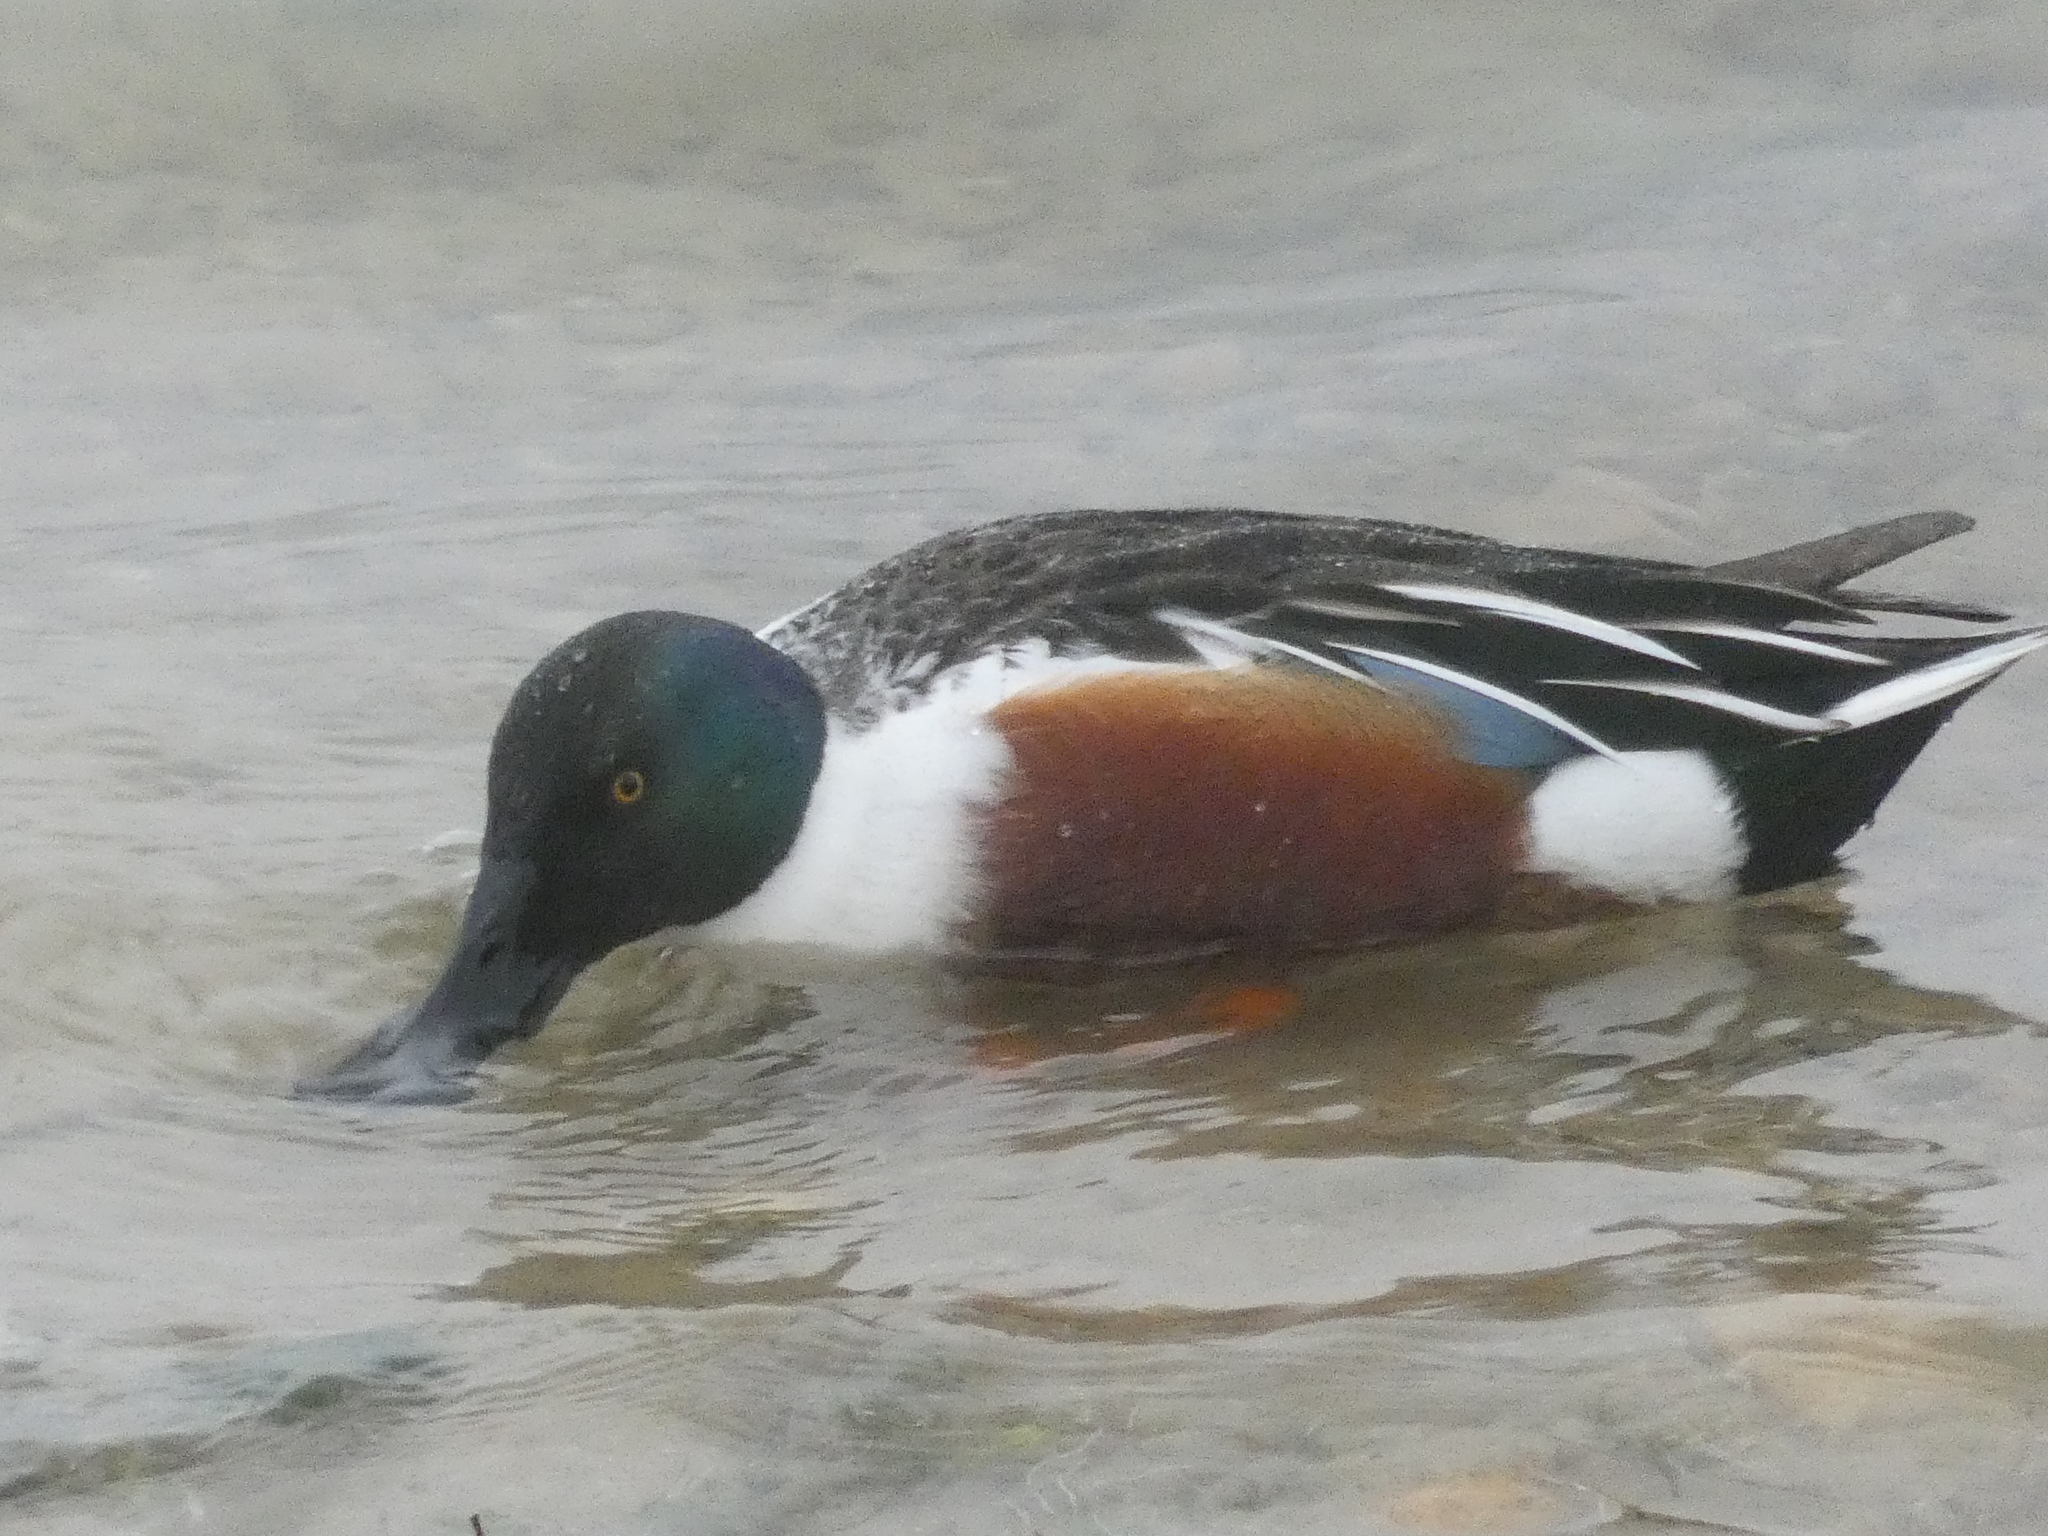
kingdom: Animalia
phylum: Chordata
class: Aves
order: Anseriformes
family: Anatidae
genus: Spatula
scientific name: Spatula clypeata
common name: Northern shoveler
